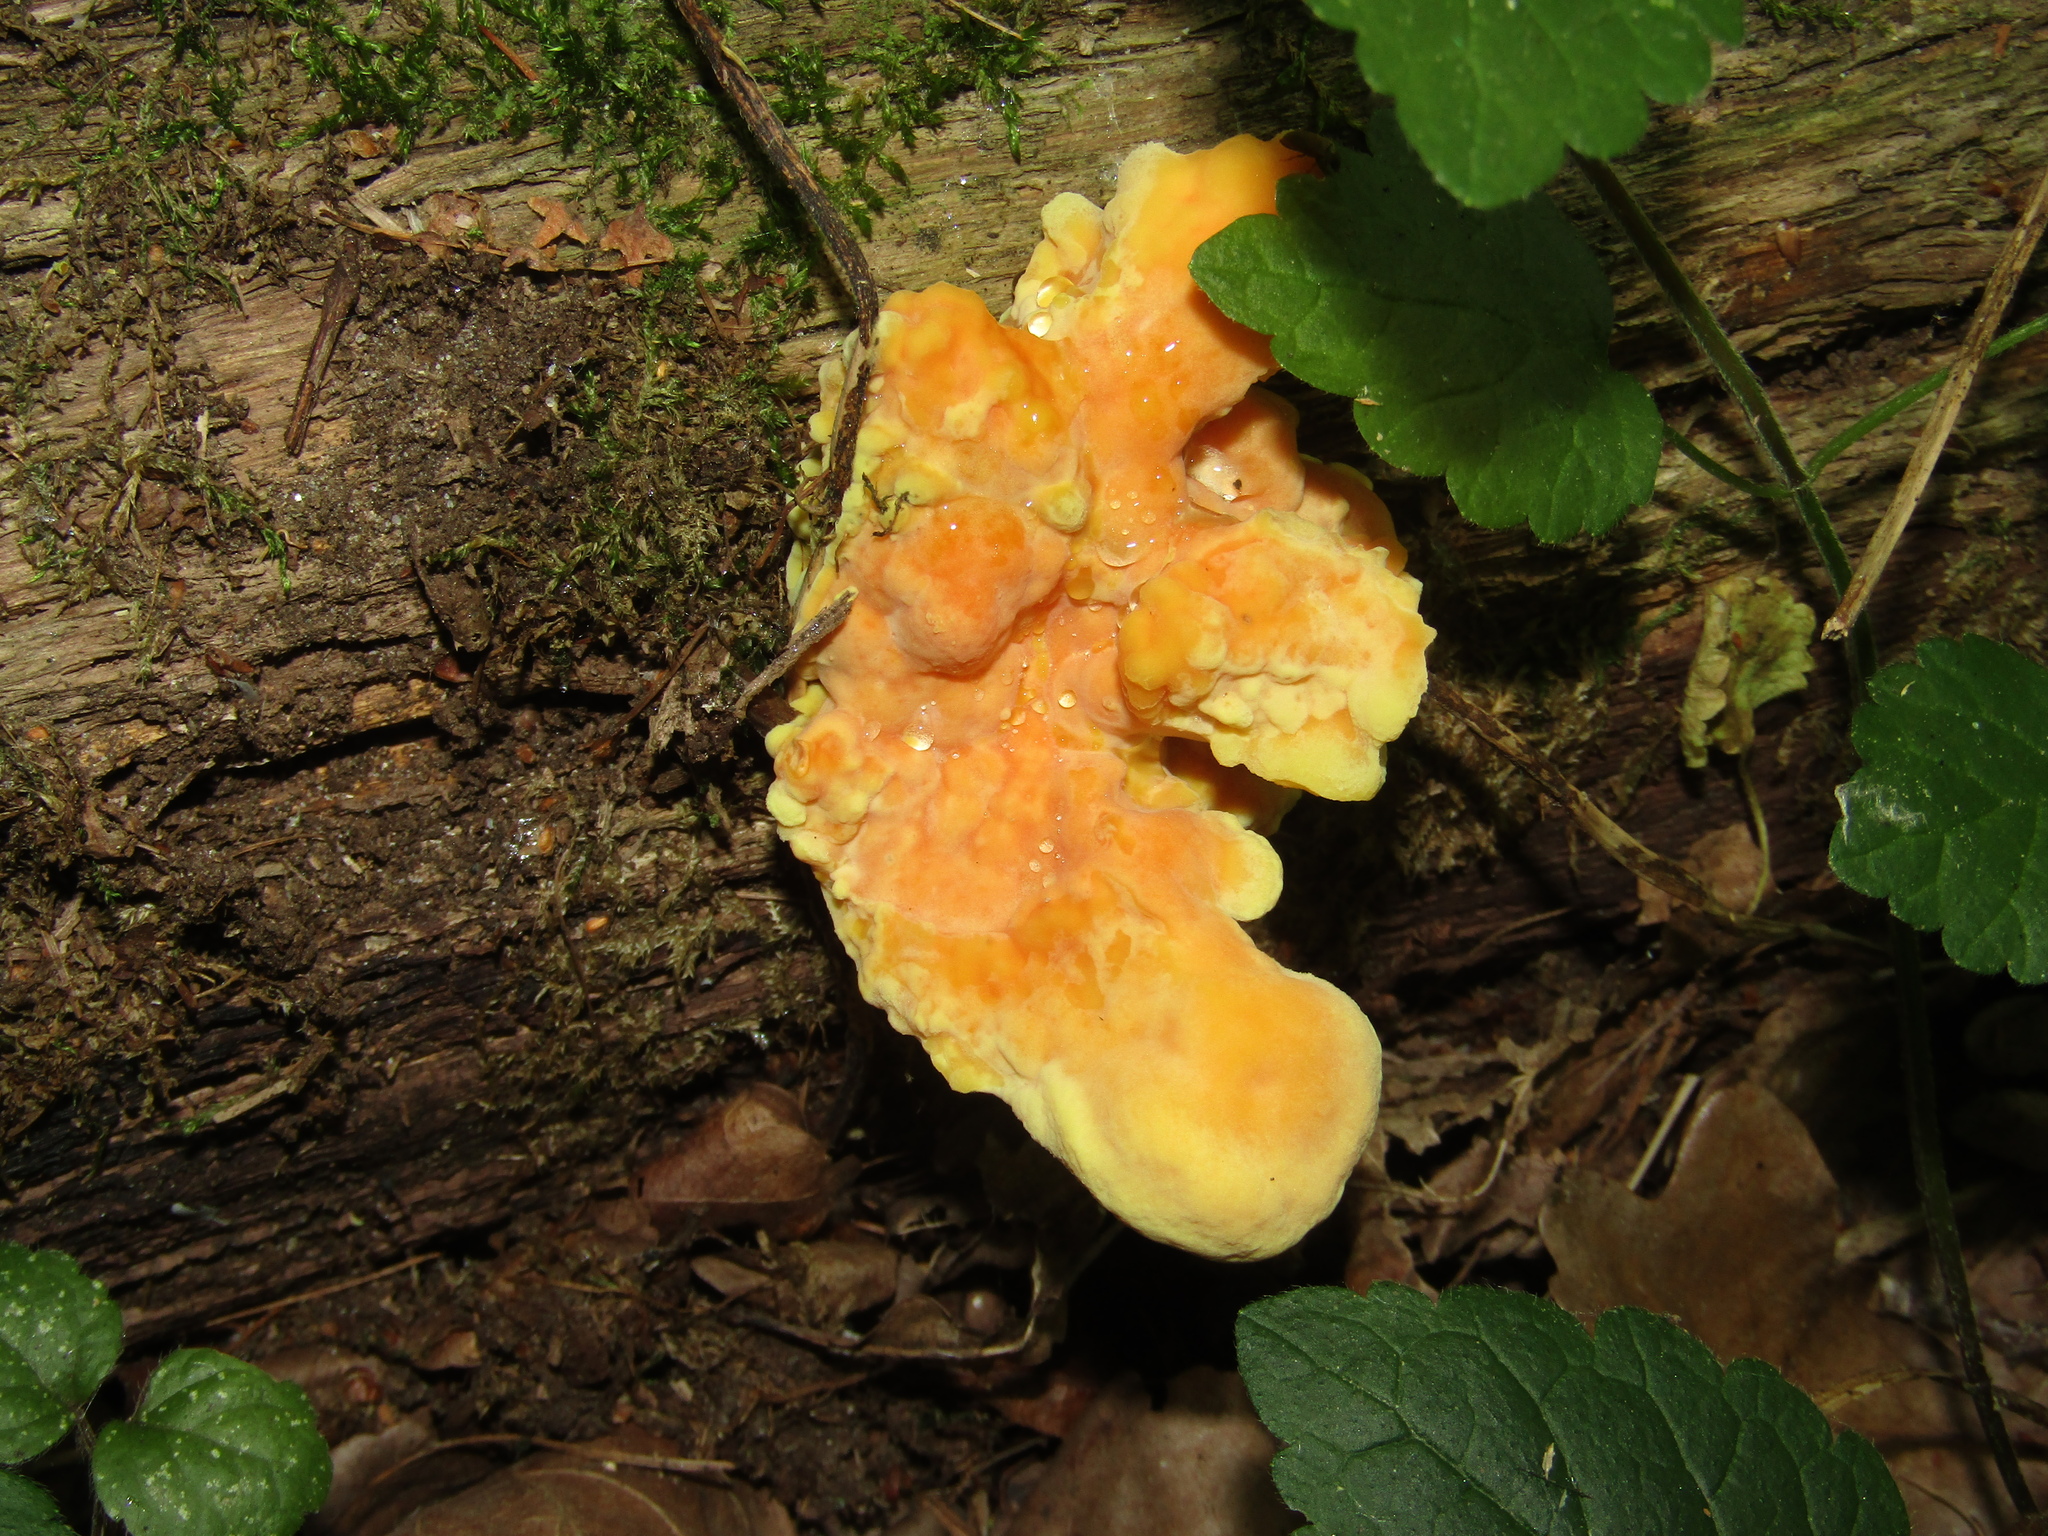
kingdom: Fungi
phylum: Basidiomycota
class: Agaricomycetes
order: Polyporales
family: Laetiporaceae
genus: Laetiporus
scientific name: Laetiporus sulphureus
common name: Chicken of the woods
